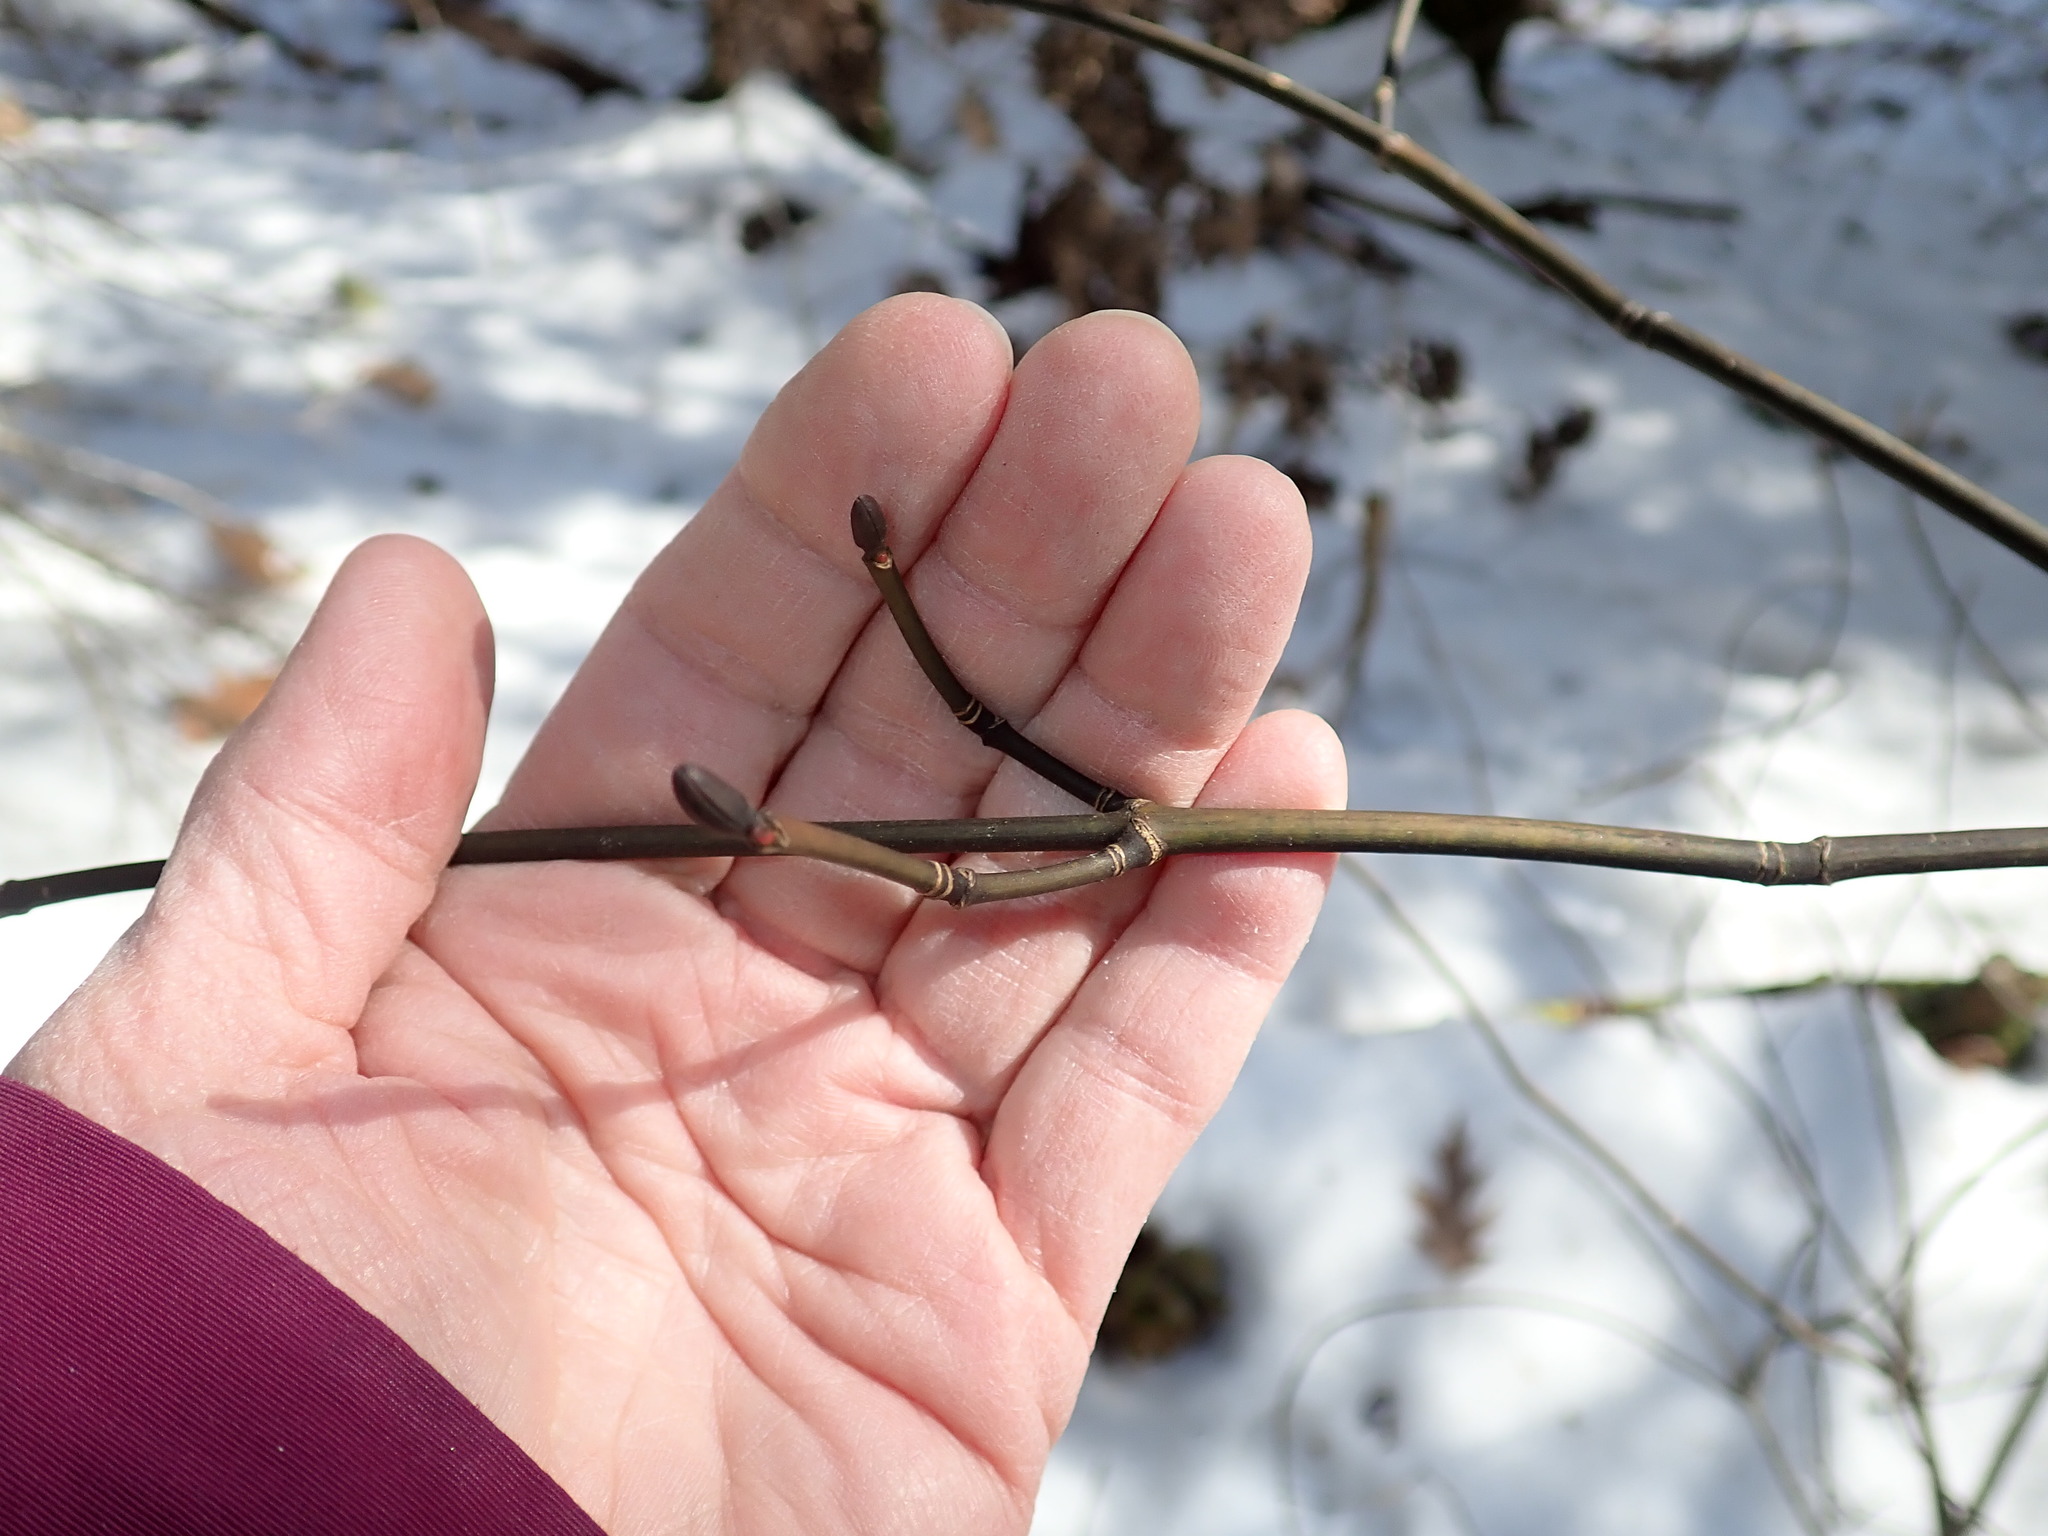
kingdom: Plantae
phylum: Tracheophyta
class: Magnoliopsida
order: Sapindales
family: Sapindaceae
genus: Acer
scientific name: Acer pensylvanicum
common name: Moosewood
